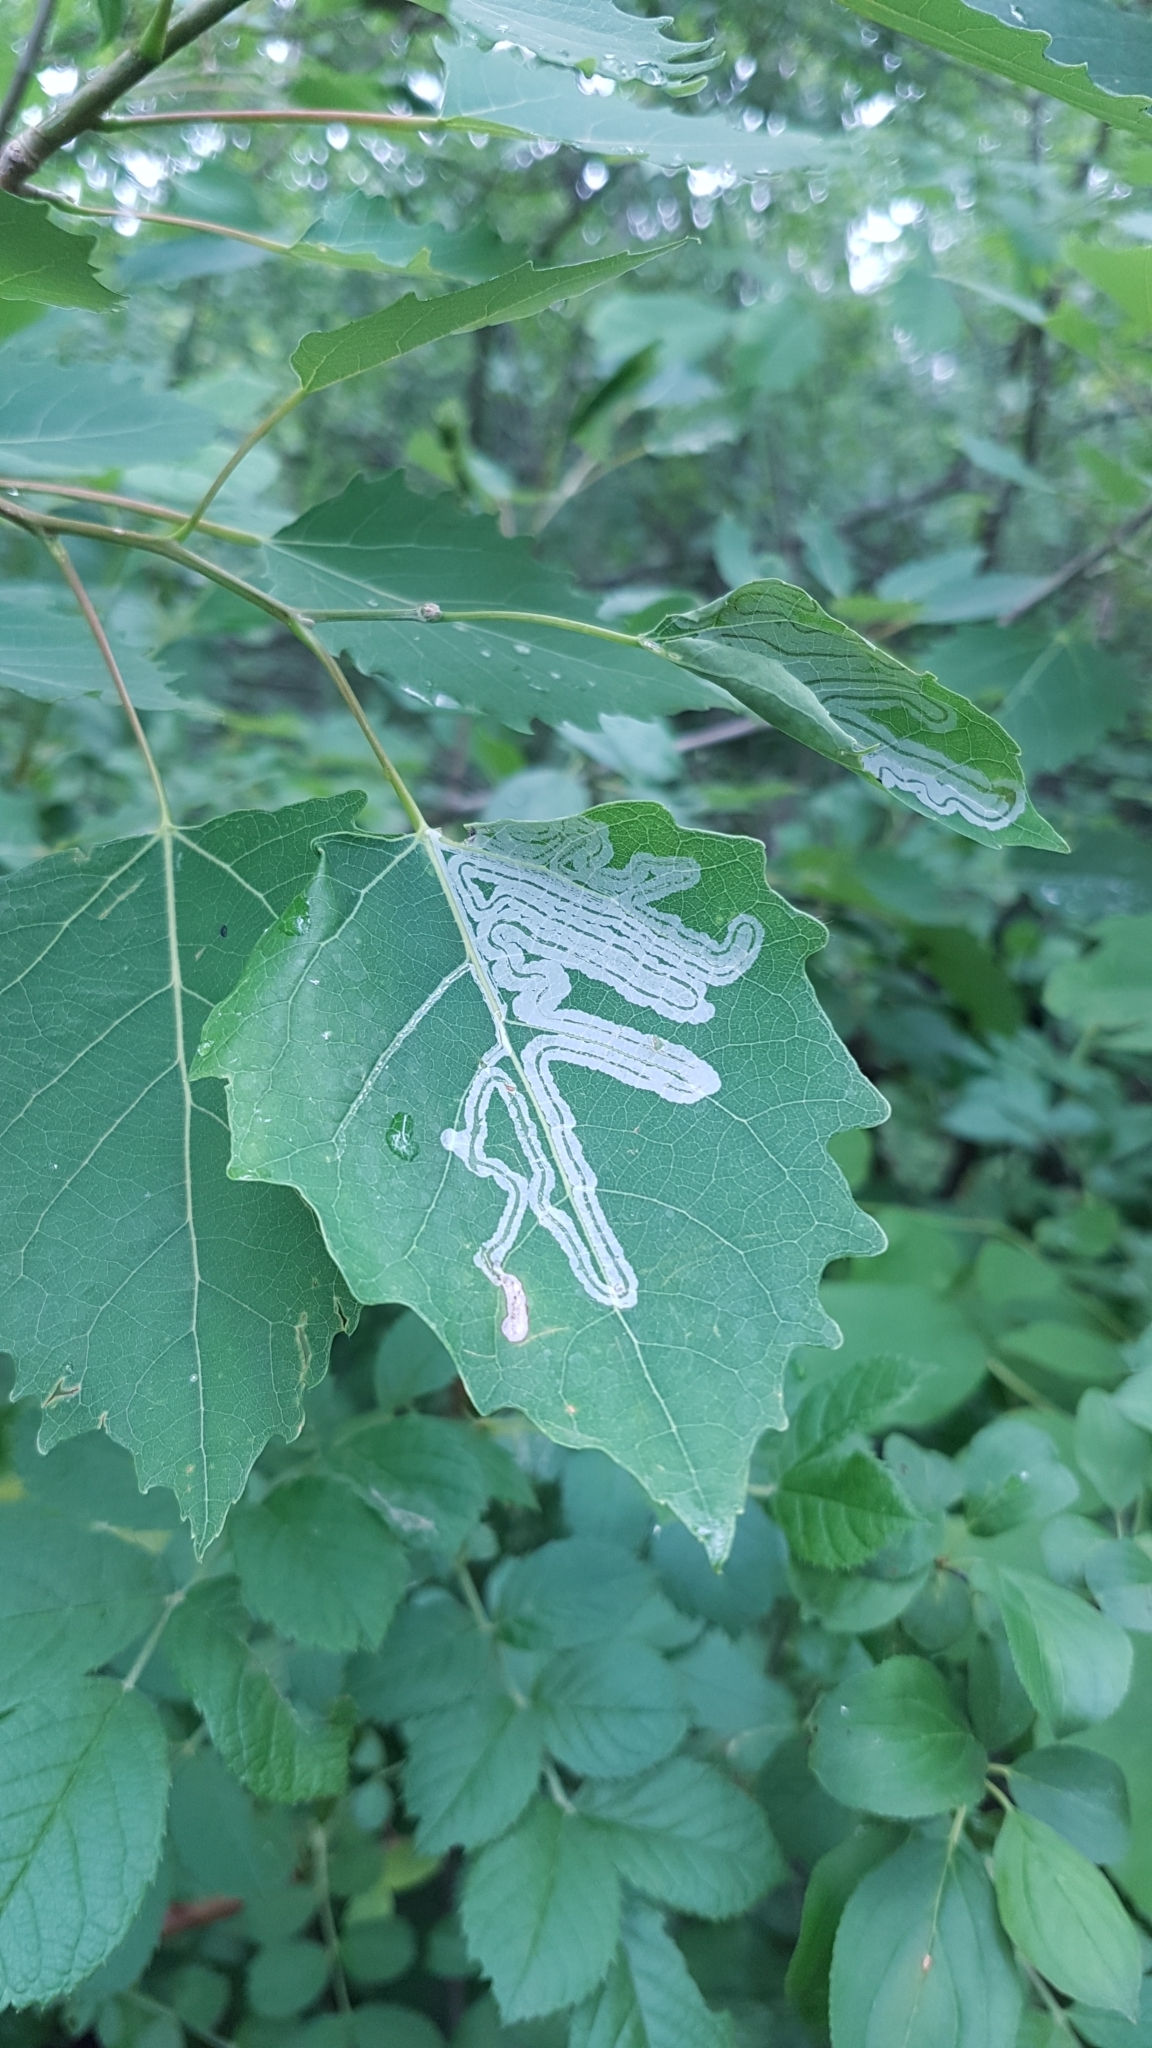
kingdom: Animalia
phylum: Arthropoda
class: Insecta
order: Lepidoptera
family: Gracillariidae
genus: Phyllocnistis
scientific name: Phyllocnistis populiella
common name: Aspen serpentine leafminer moth
